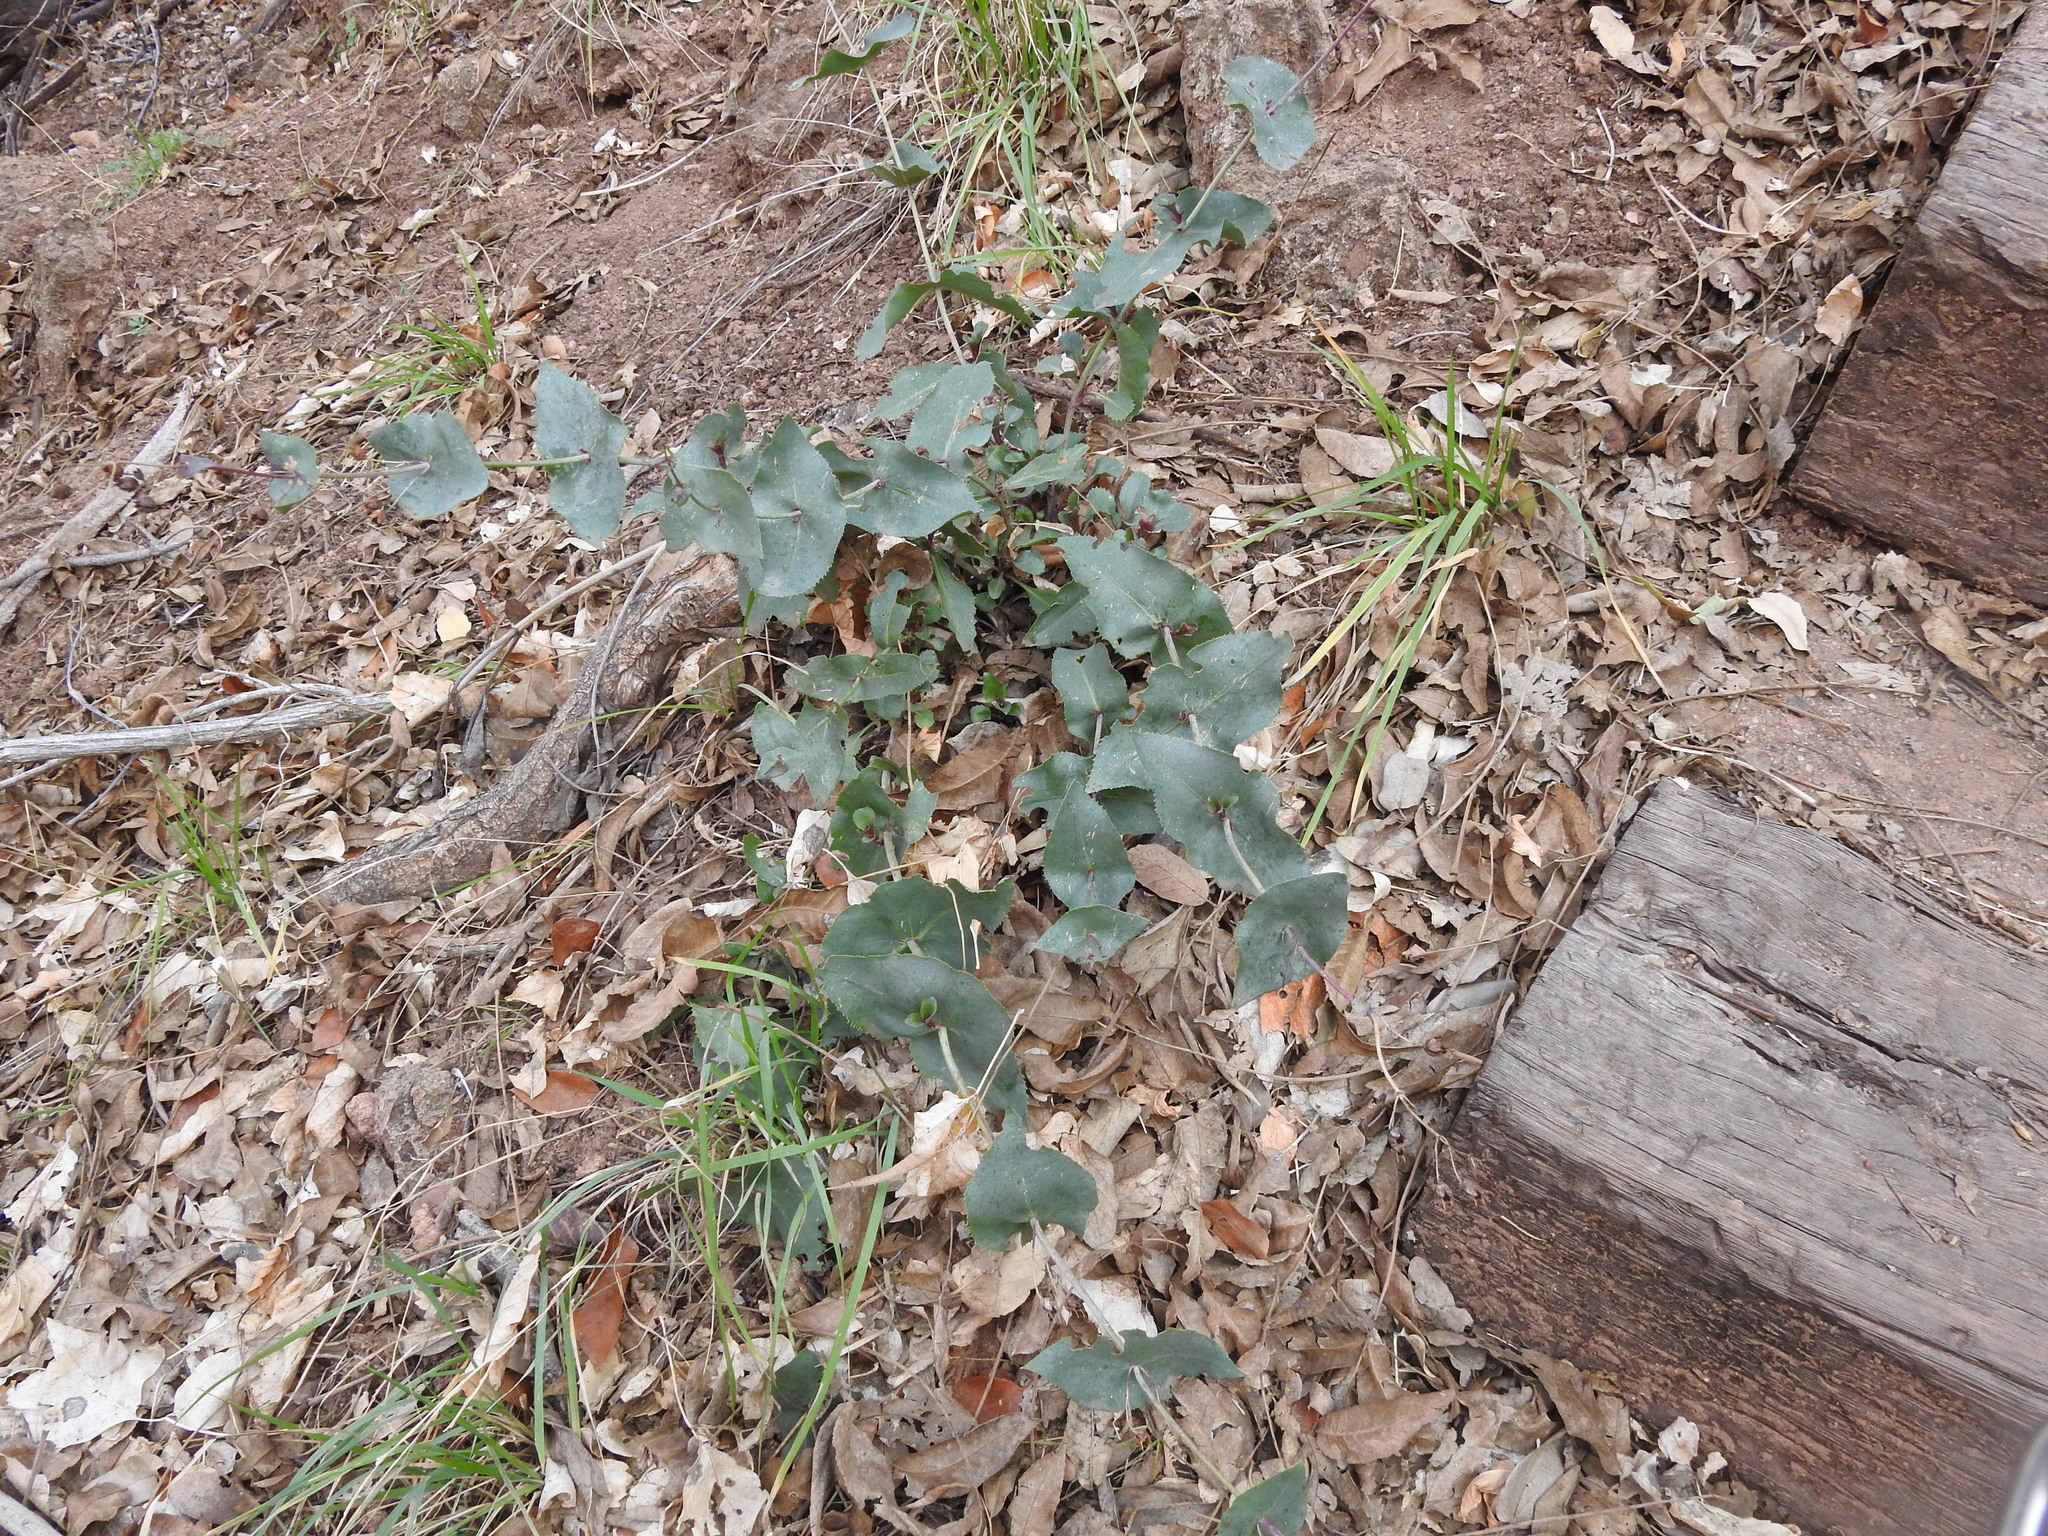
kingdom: Plantae
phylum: Tracheophyta
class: Magnoliopsida
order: Lamiales
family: Plantaginaceae
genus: Penstemon
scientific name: Penstemon pseudospectabilis
